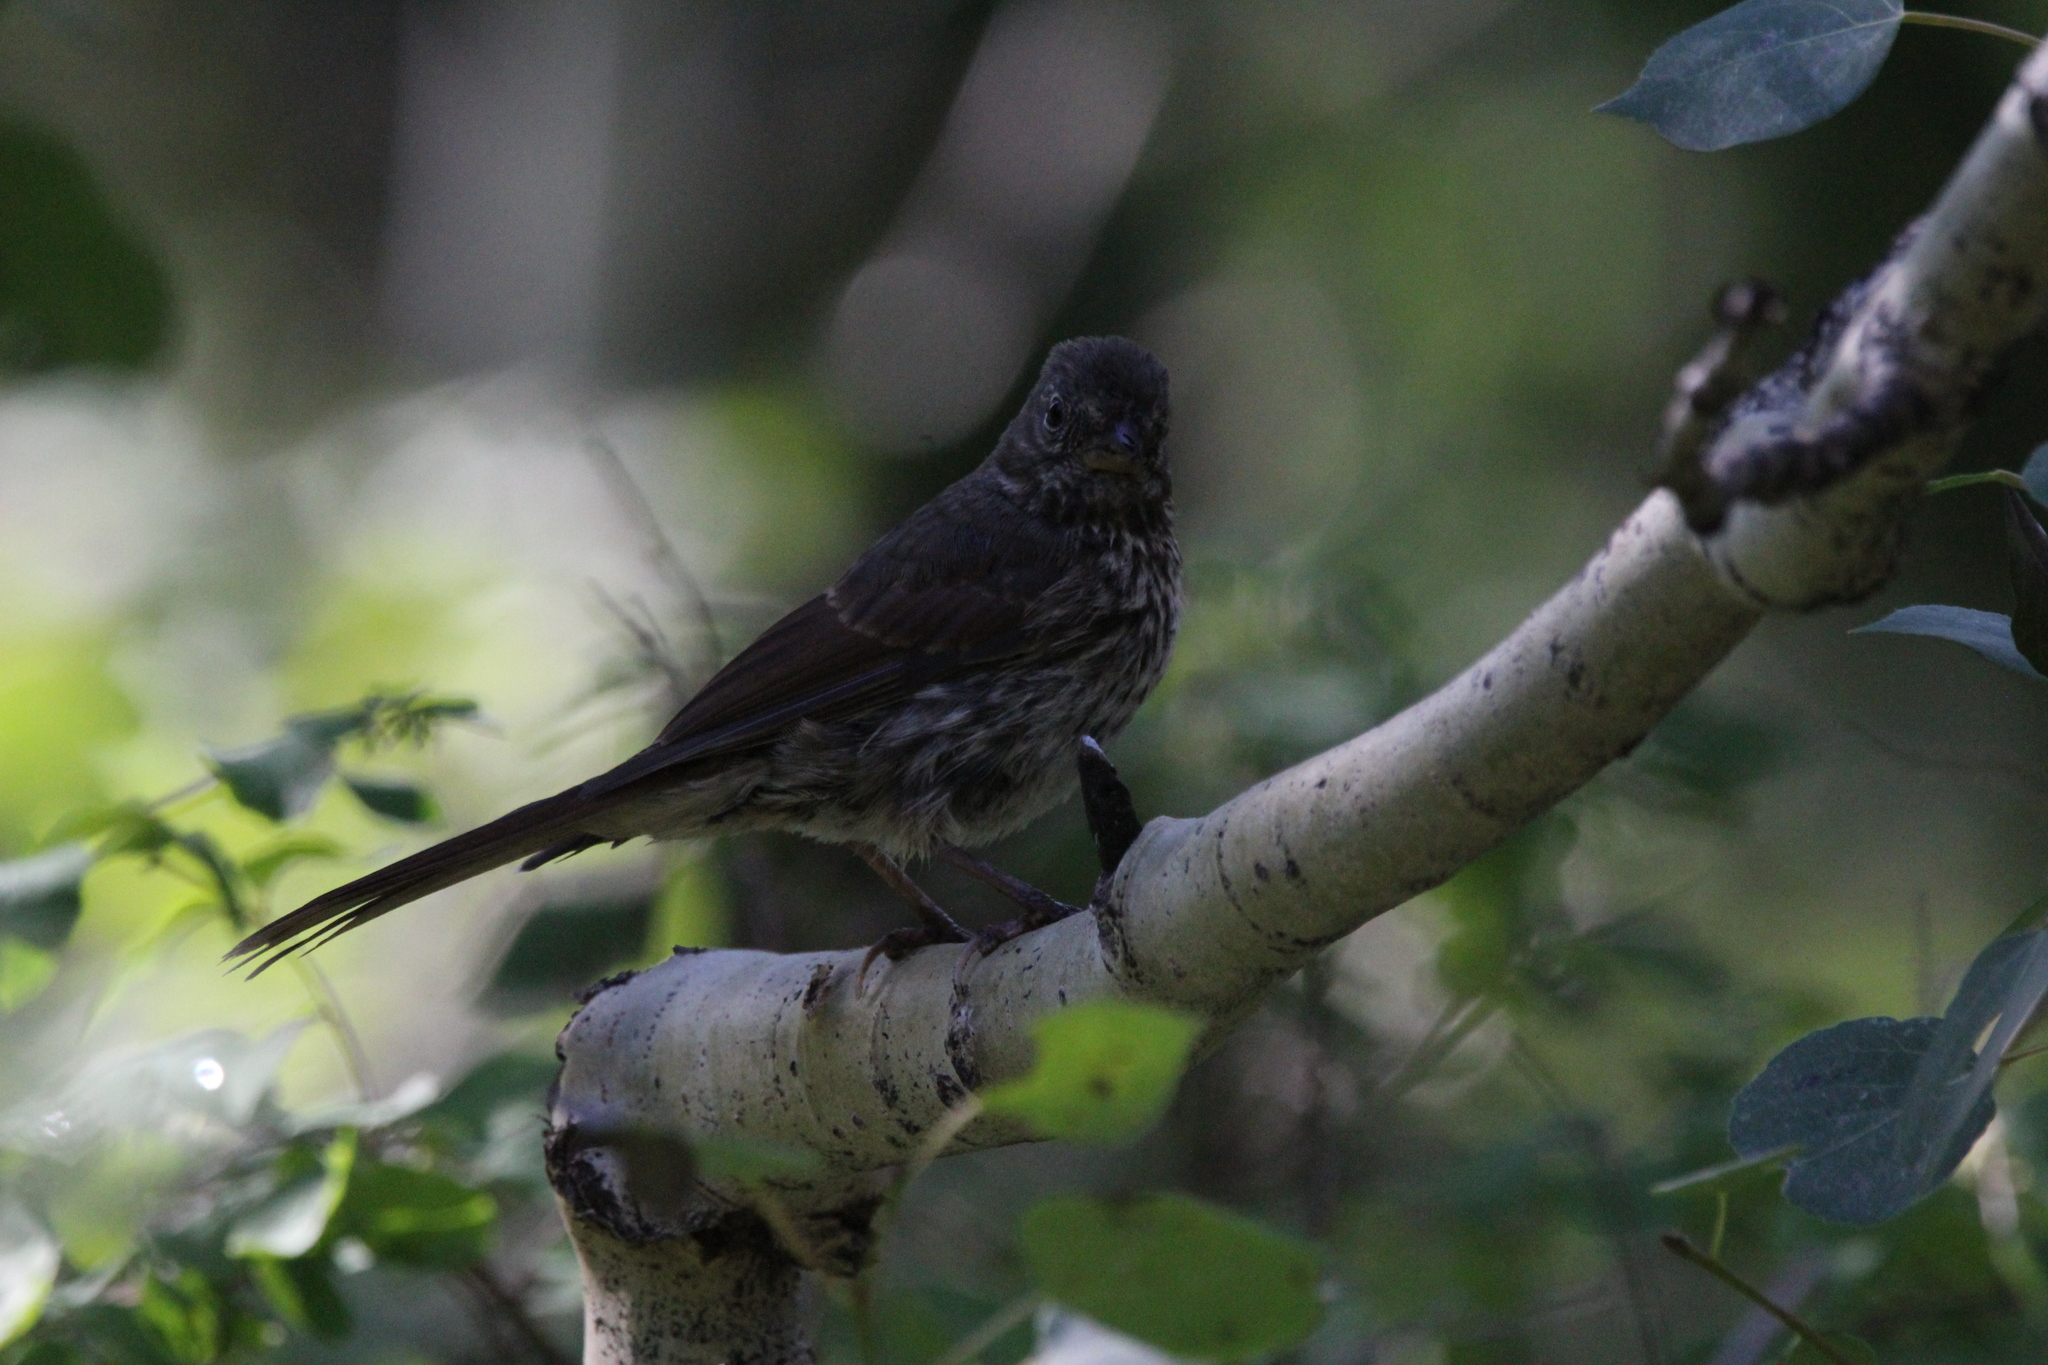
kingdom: Animalia
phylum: Chordata
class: Aves
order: Passeriformes
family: Passerellidae
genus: Passerella
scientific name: Passerella iliaca
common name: Fox sparrow
